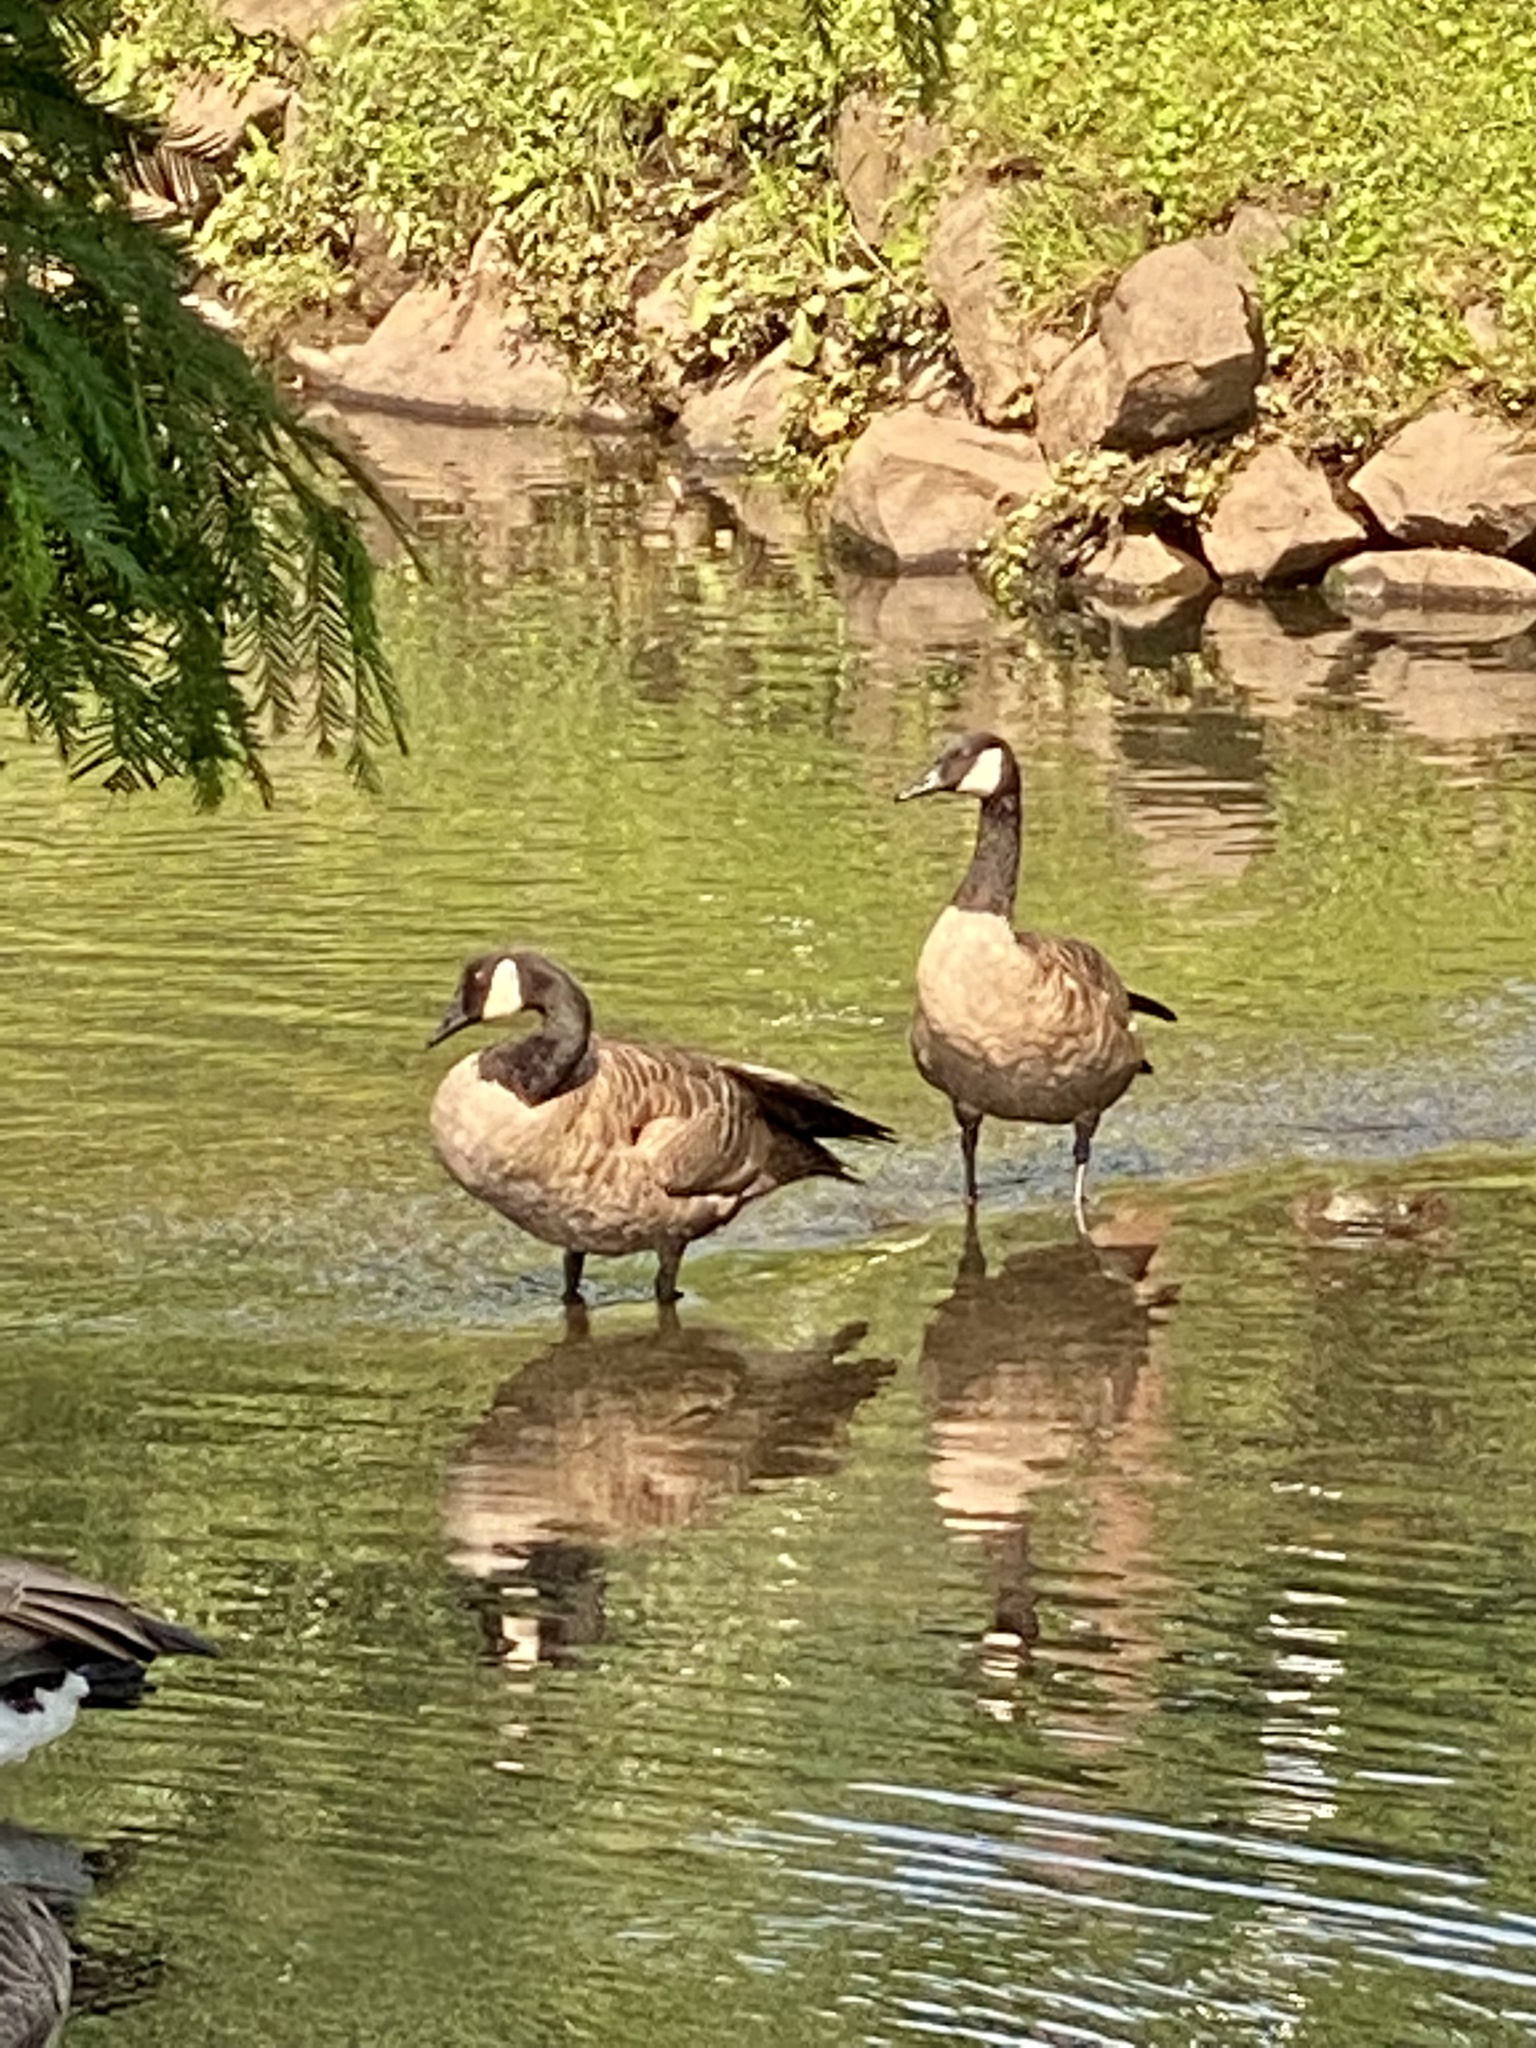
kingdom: Animalia
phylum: Chordata
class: Aves
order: Anseriformes
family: Anatidae
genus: Branta
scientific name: Branta canadensis
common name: Canada goose
